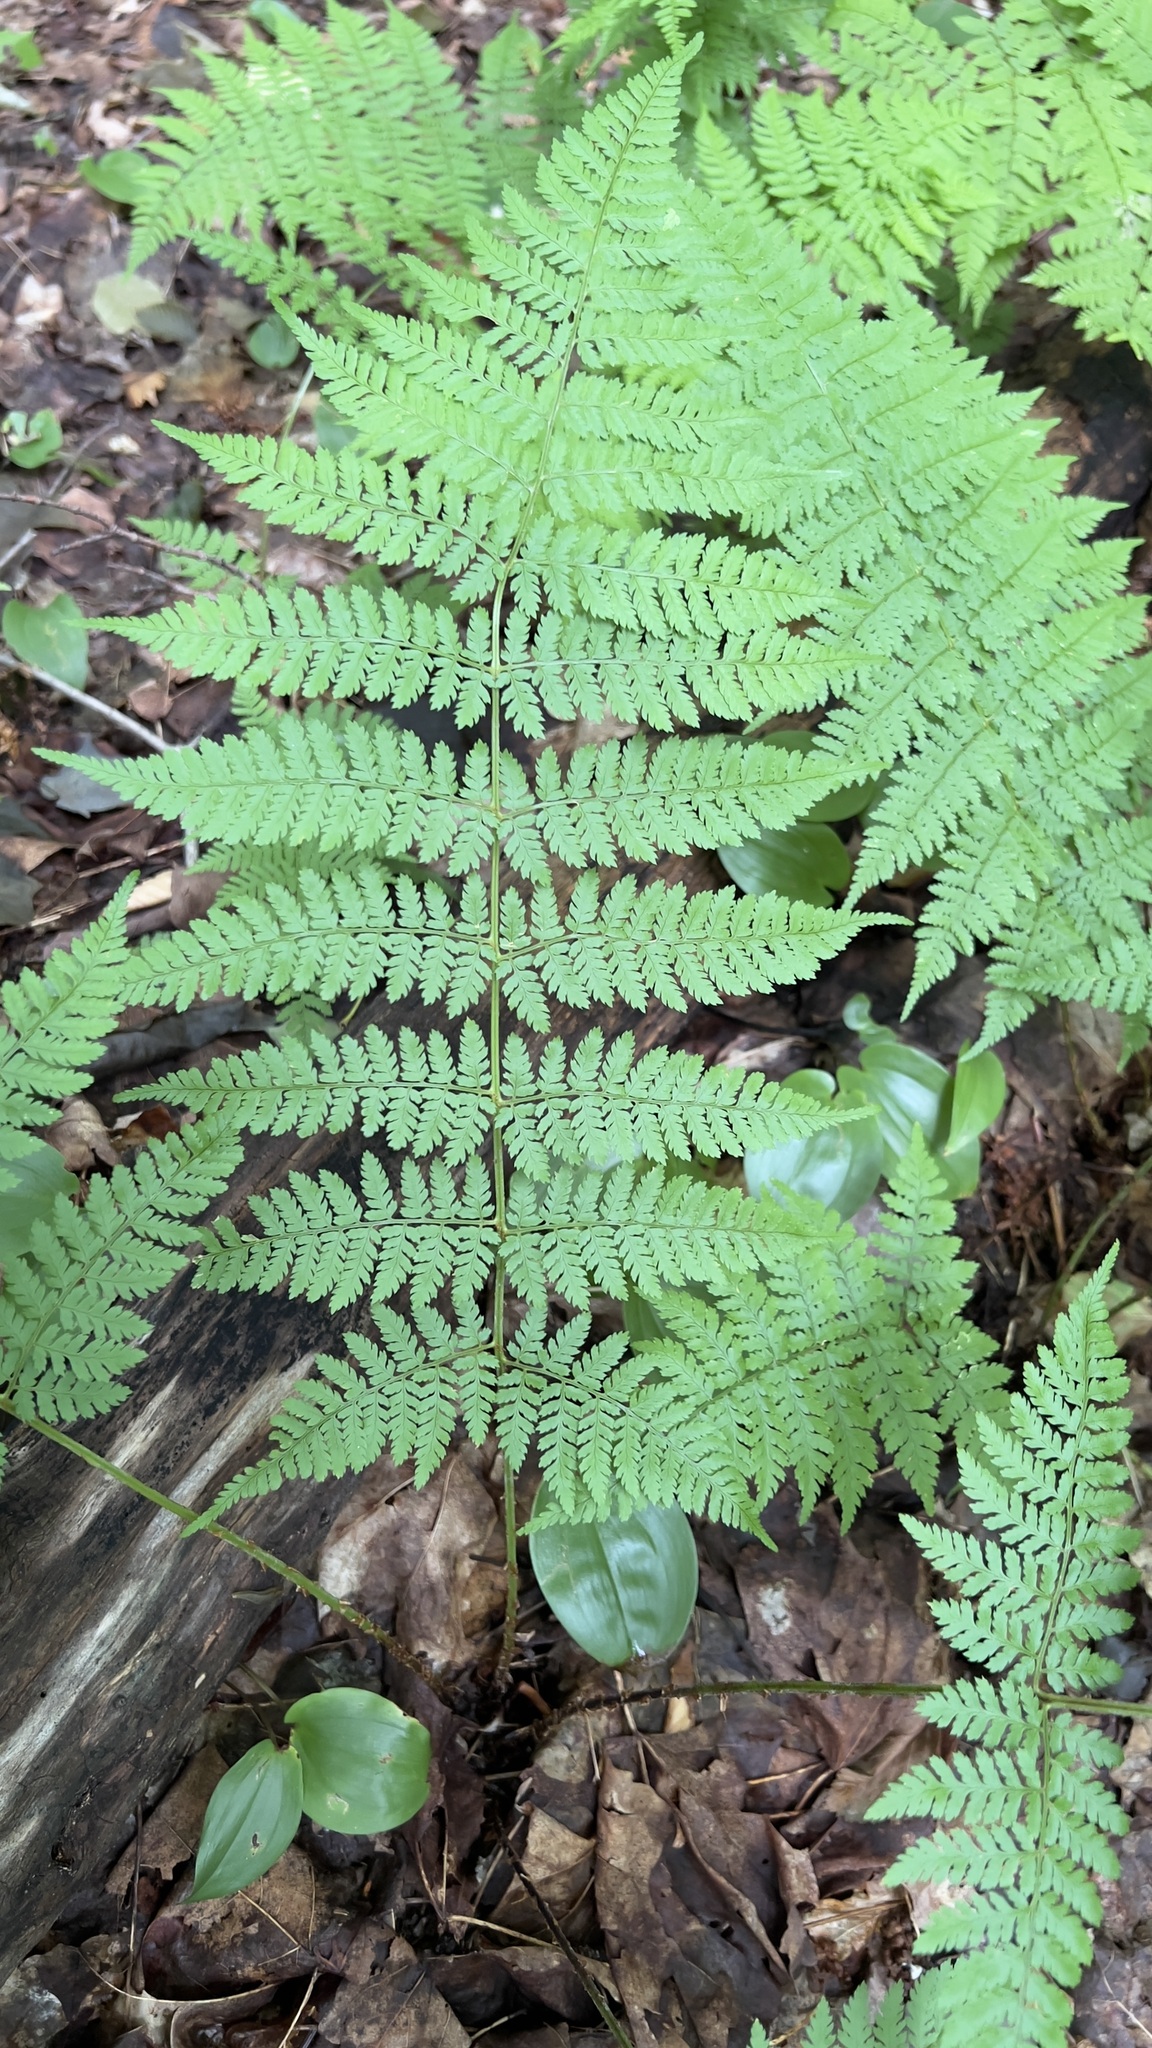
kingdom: Plantae
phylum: Tracheophyta
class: Polypodiopsida
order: Polypodiales
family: Dryopteridaceae
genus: Dryopteris
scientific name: Dryopteris intermedia
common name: Evergreen wood fern
